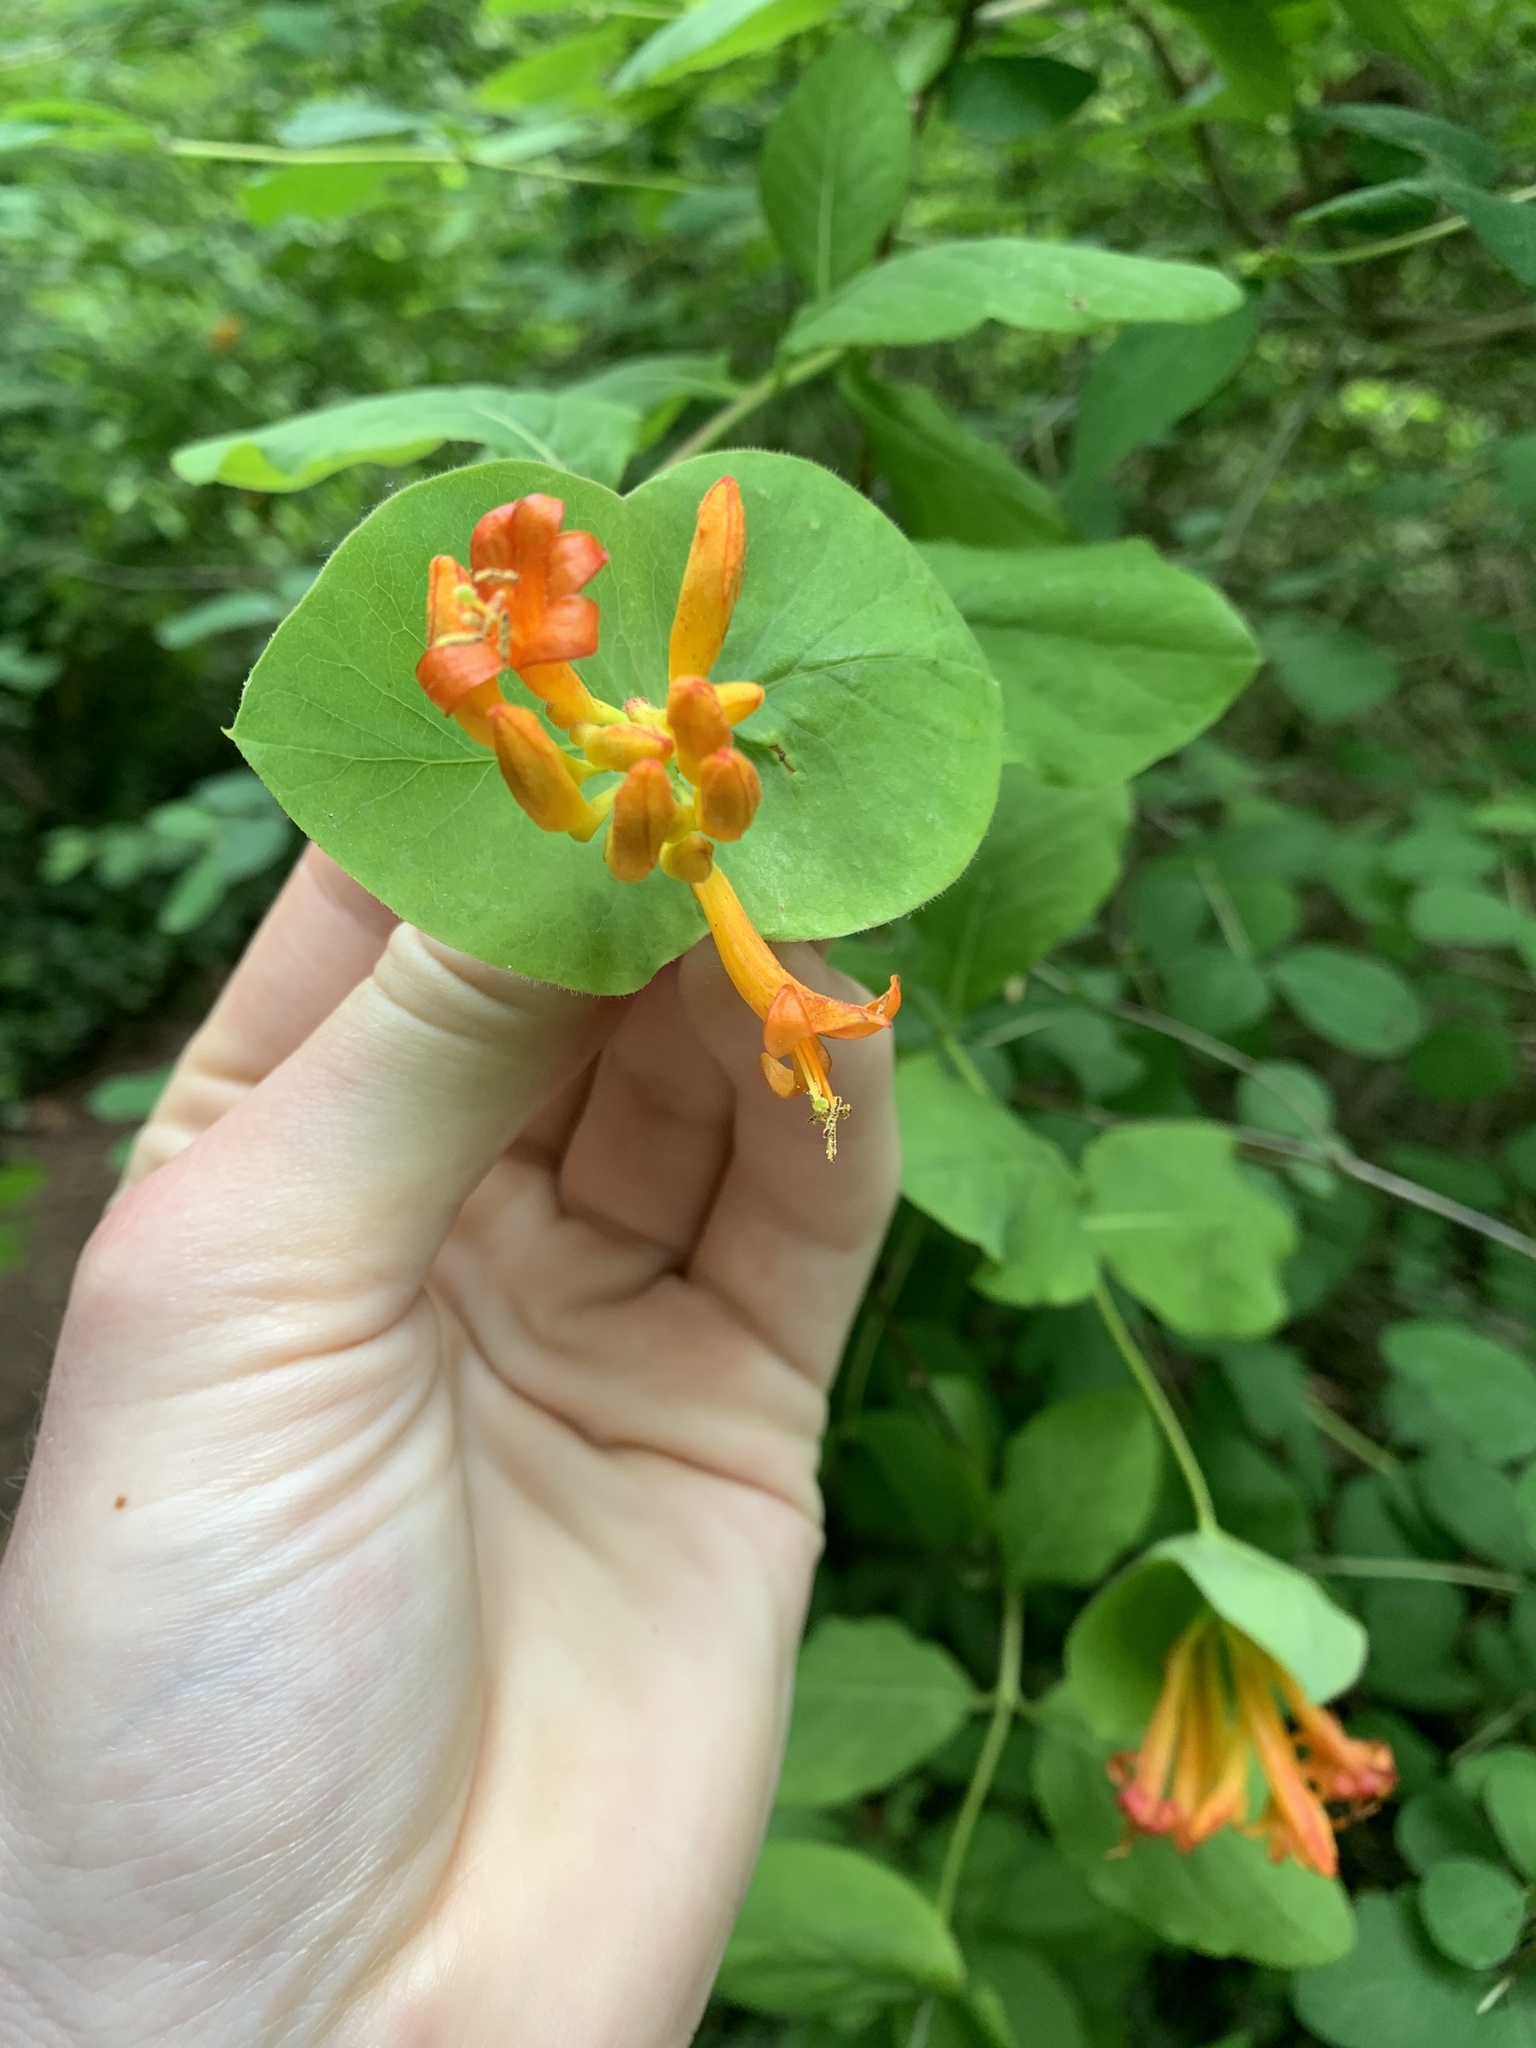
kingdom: Plantae
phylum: Tracheophyta
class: Magnoliopsida
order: Dipsacales
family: Caprifoliaceae
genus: Lonicera
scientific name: Lonicera ciliosa
